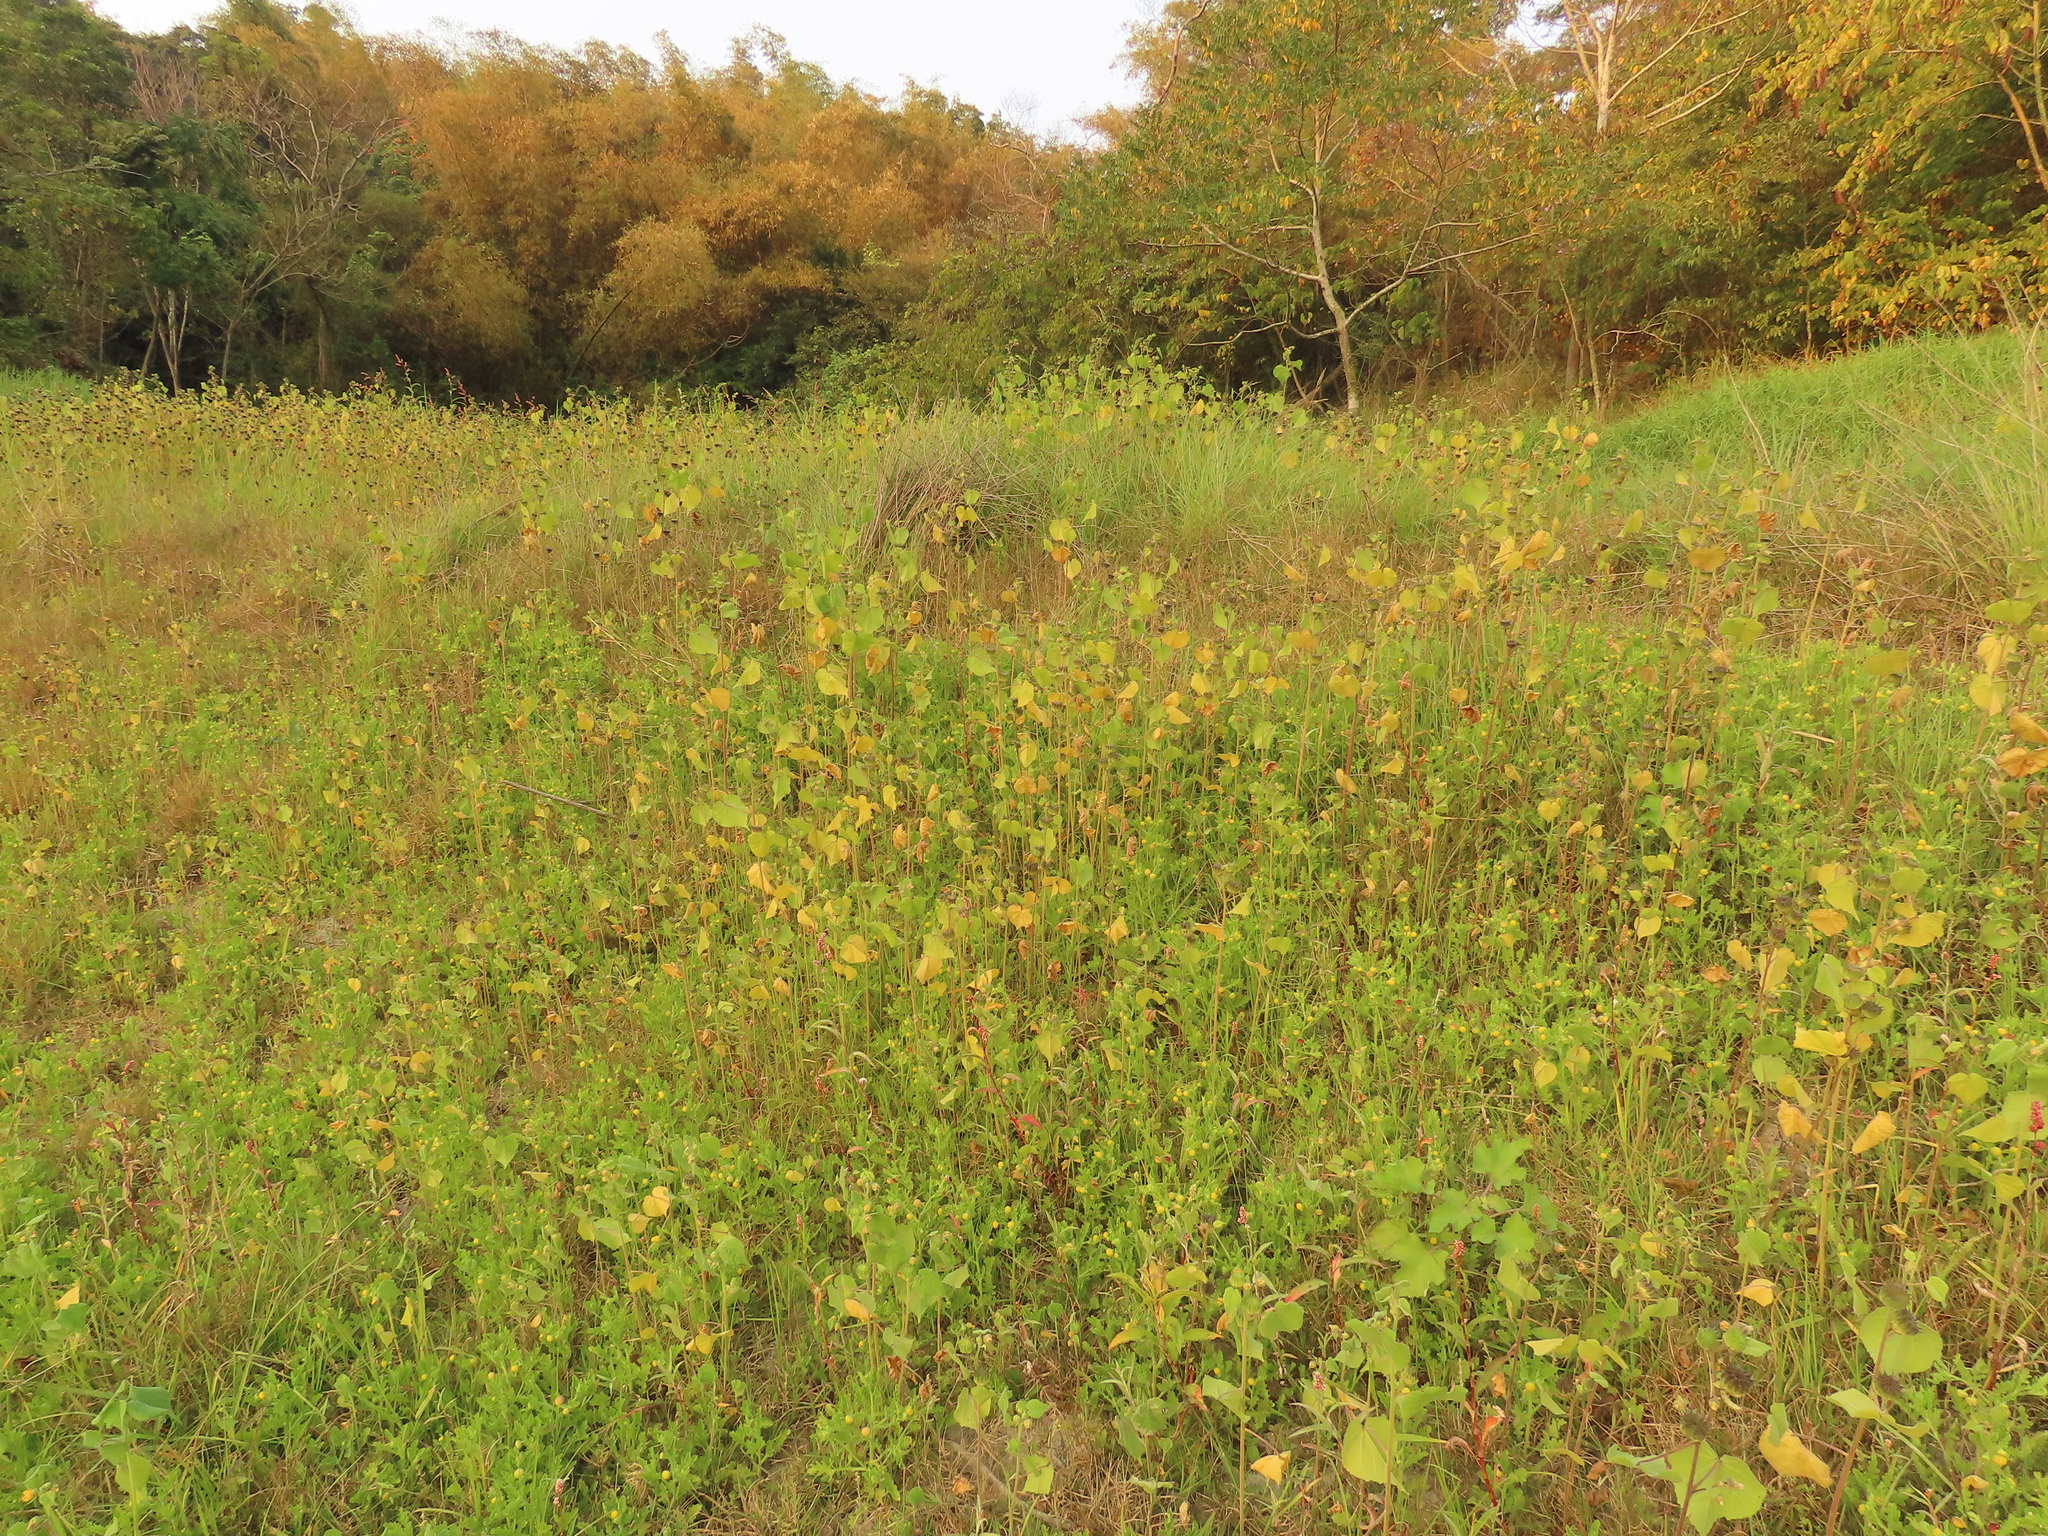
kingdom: Plantae
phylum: Tracheophyta
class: Magnoliopsida
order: Malvales
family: Malvaceae
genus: Abutilon
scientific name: Abutilon theophrasti
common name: Velvetleaf
